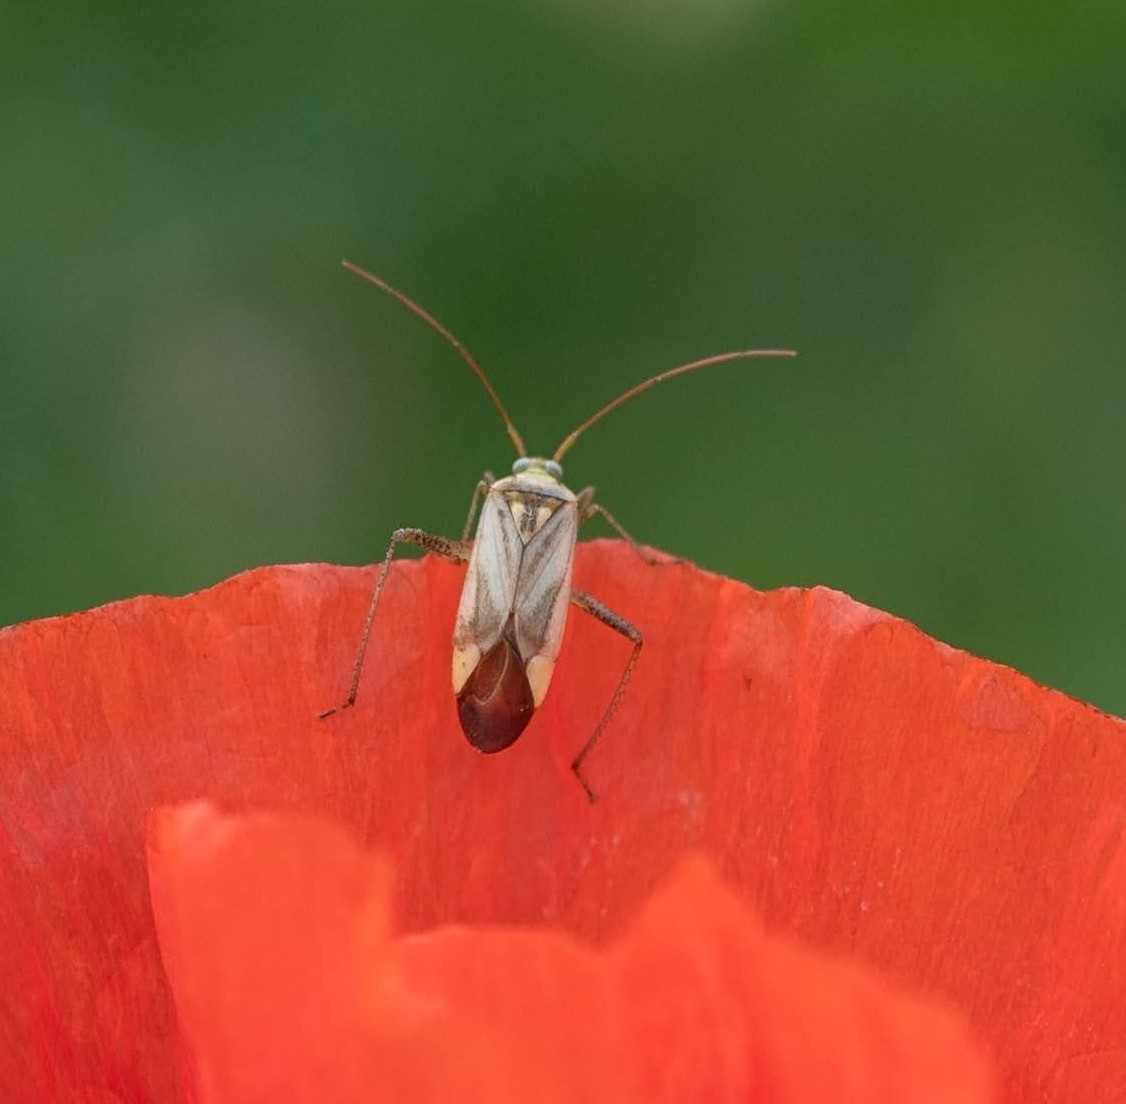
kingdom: Animalia
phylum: Arthropoda
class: Insecta
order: Hemiptera
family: Miridae
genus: Adelphocoris
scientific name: Adelphocoris lineolatus
